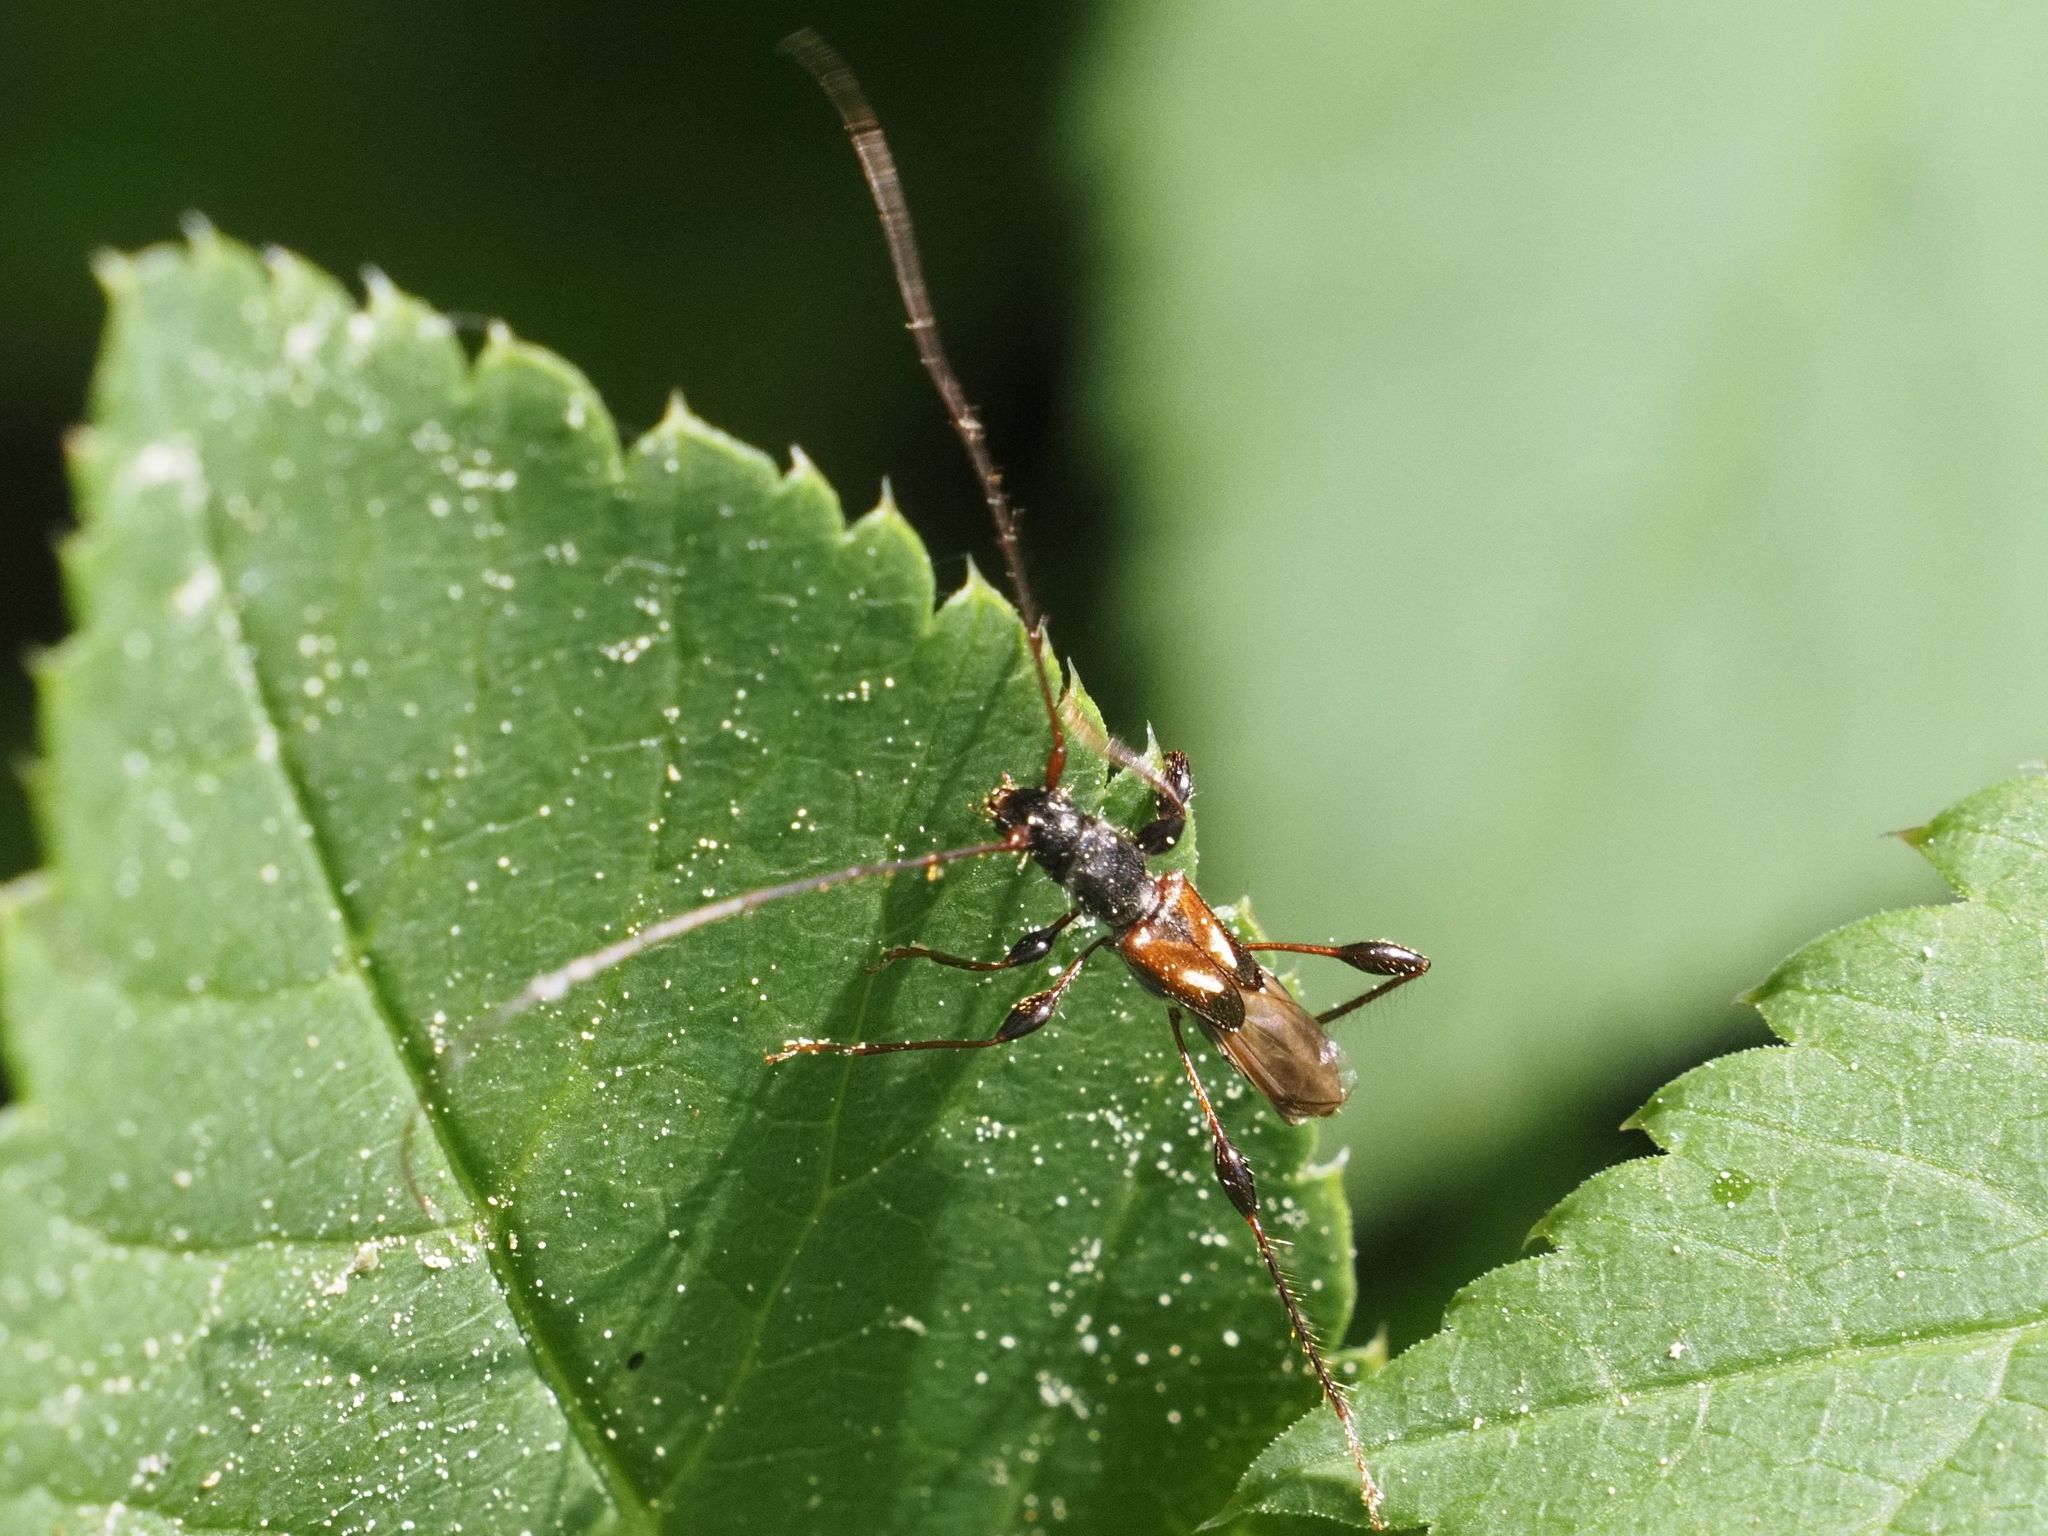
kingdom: Animalia
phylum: Arthropoda
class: Insecta
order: Coleoptera
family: Cerambycidae
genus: Molorchus
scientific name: Molorchus minor
